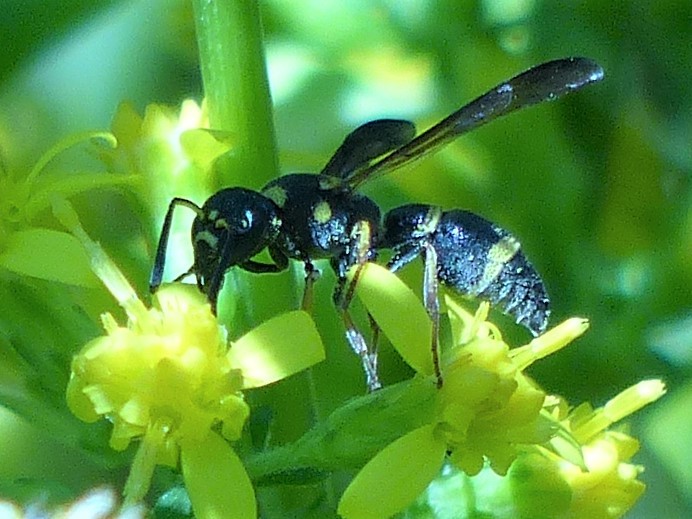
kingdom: Animalia
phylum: Arthropoda
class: Insecta
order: Hymenoptera
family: Eumenidae
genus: Parancistrocerus
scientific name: Parancistrocerus perennis
